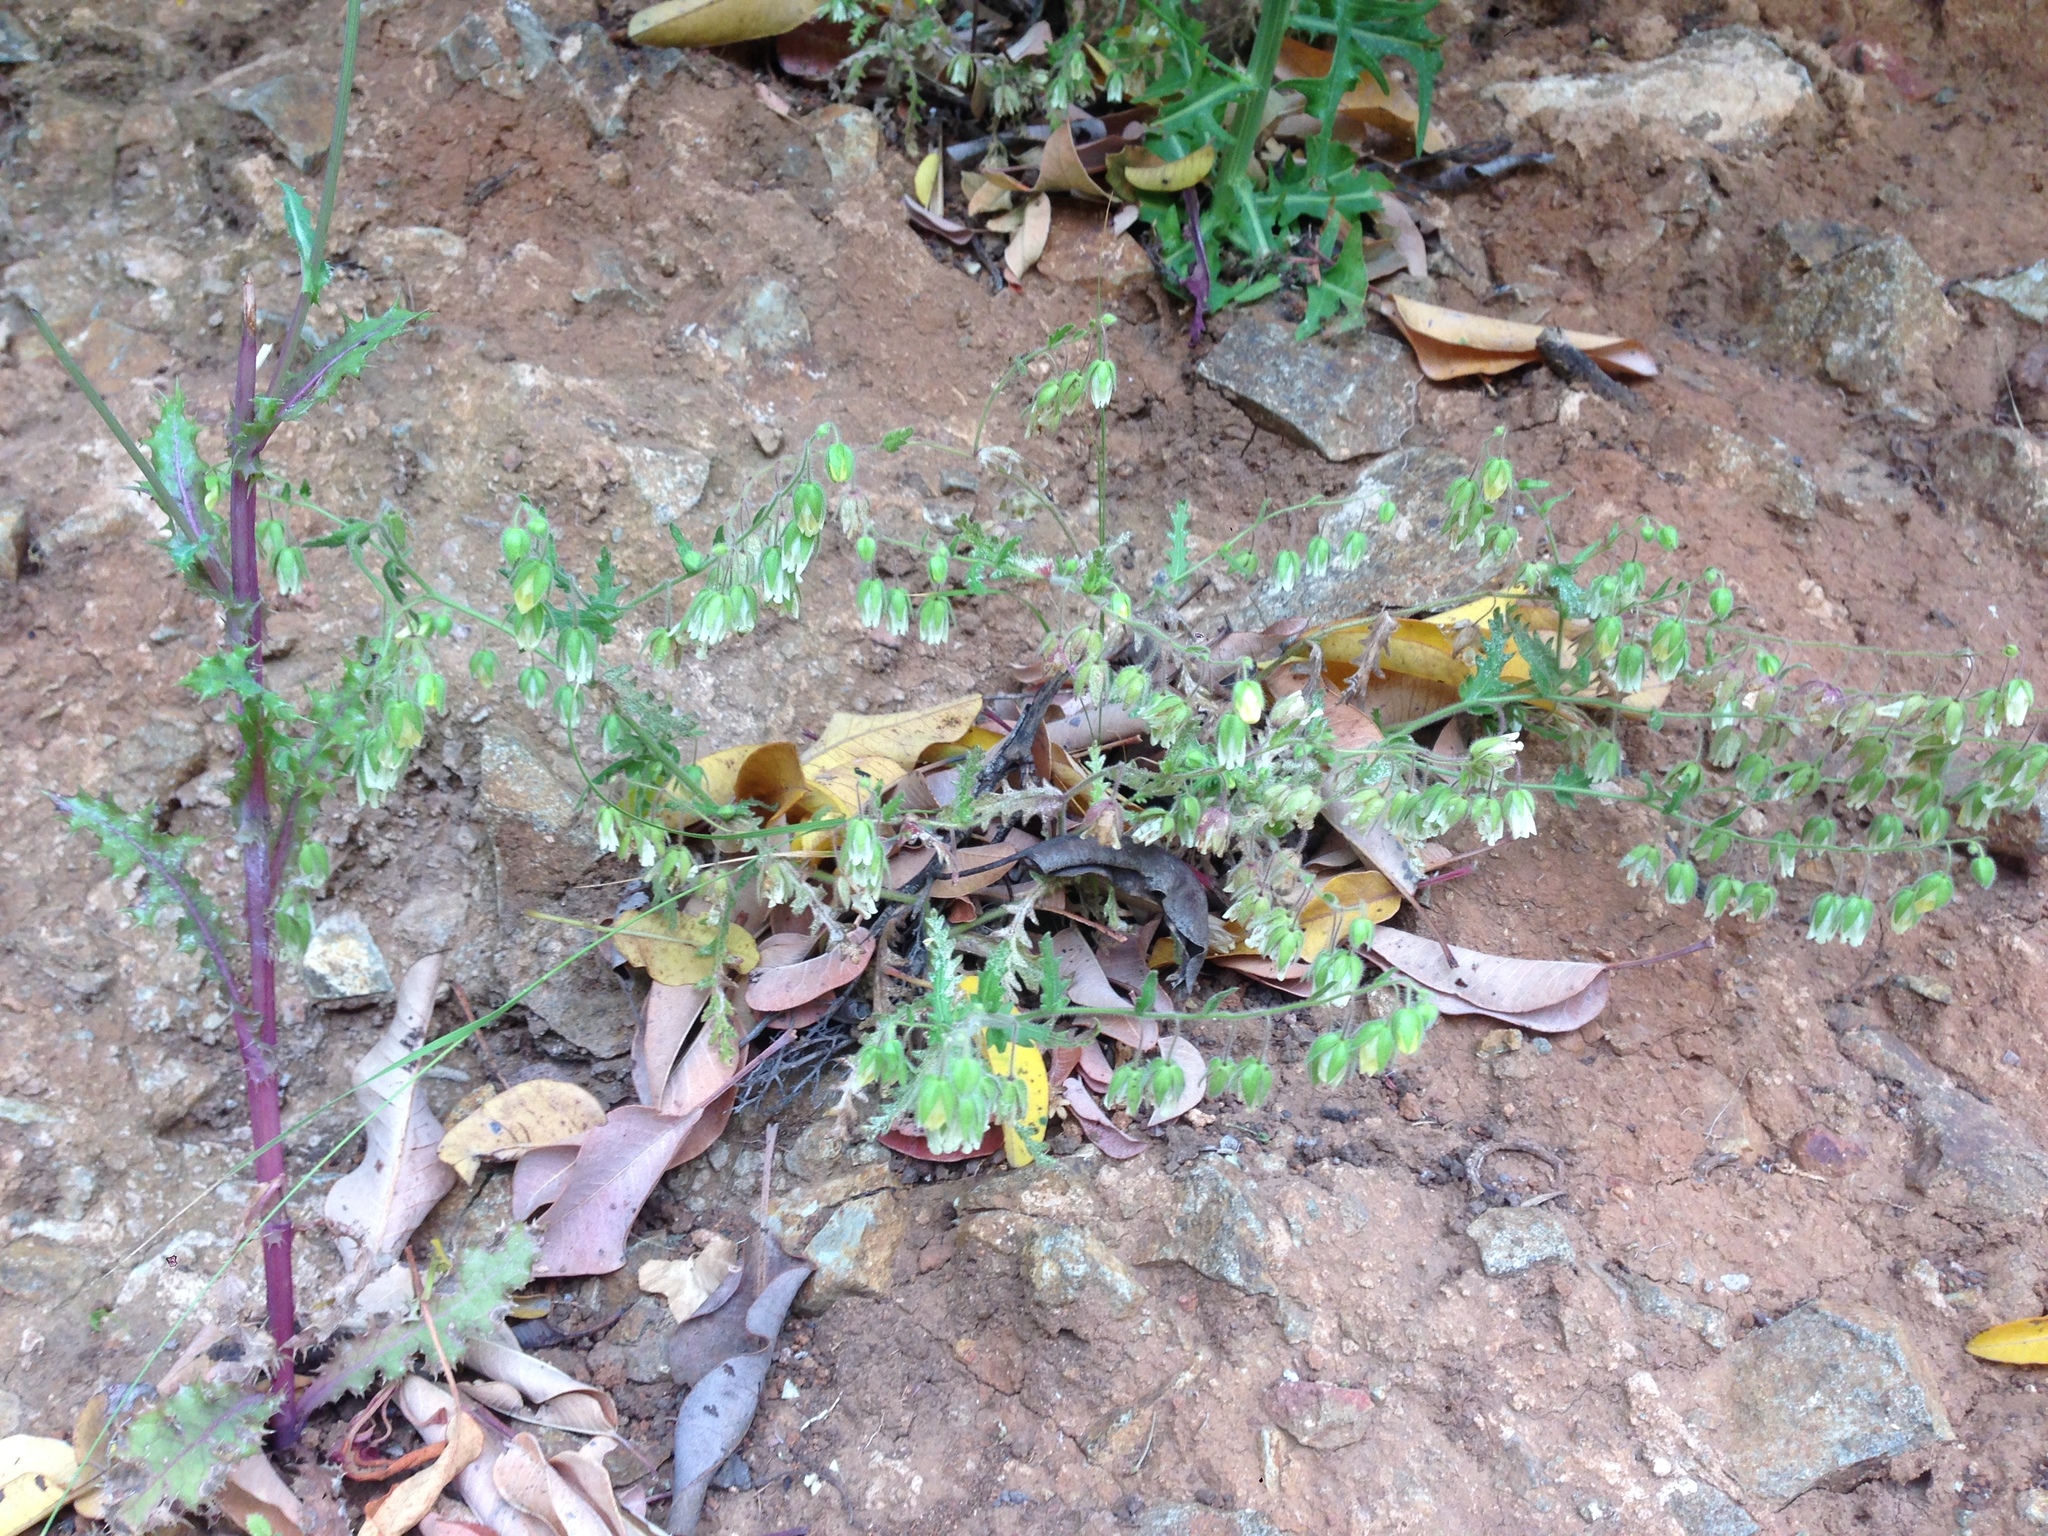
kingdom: Plantae
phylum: Tracheophyta
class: Magnoliopsida
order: Boraginales
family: Hydrophyllaceae
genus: Emmenanthe
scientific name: Emmenanthe penduliflora
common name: Whispering-bells
